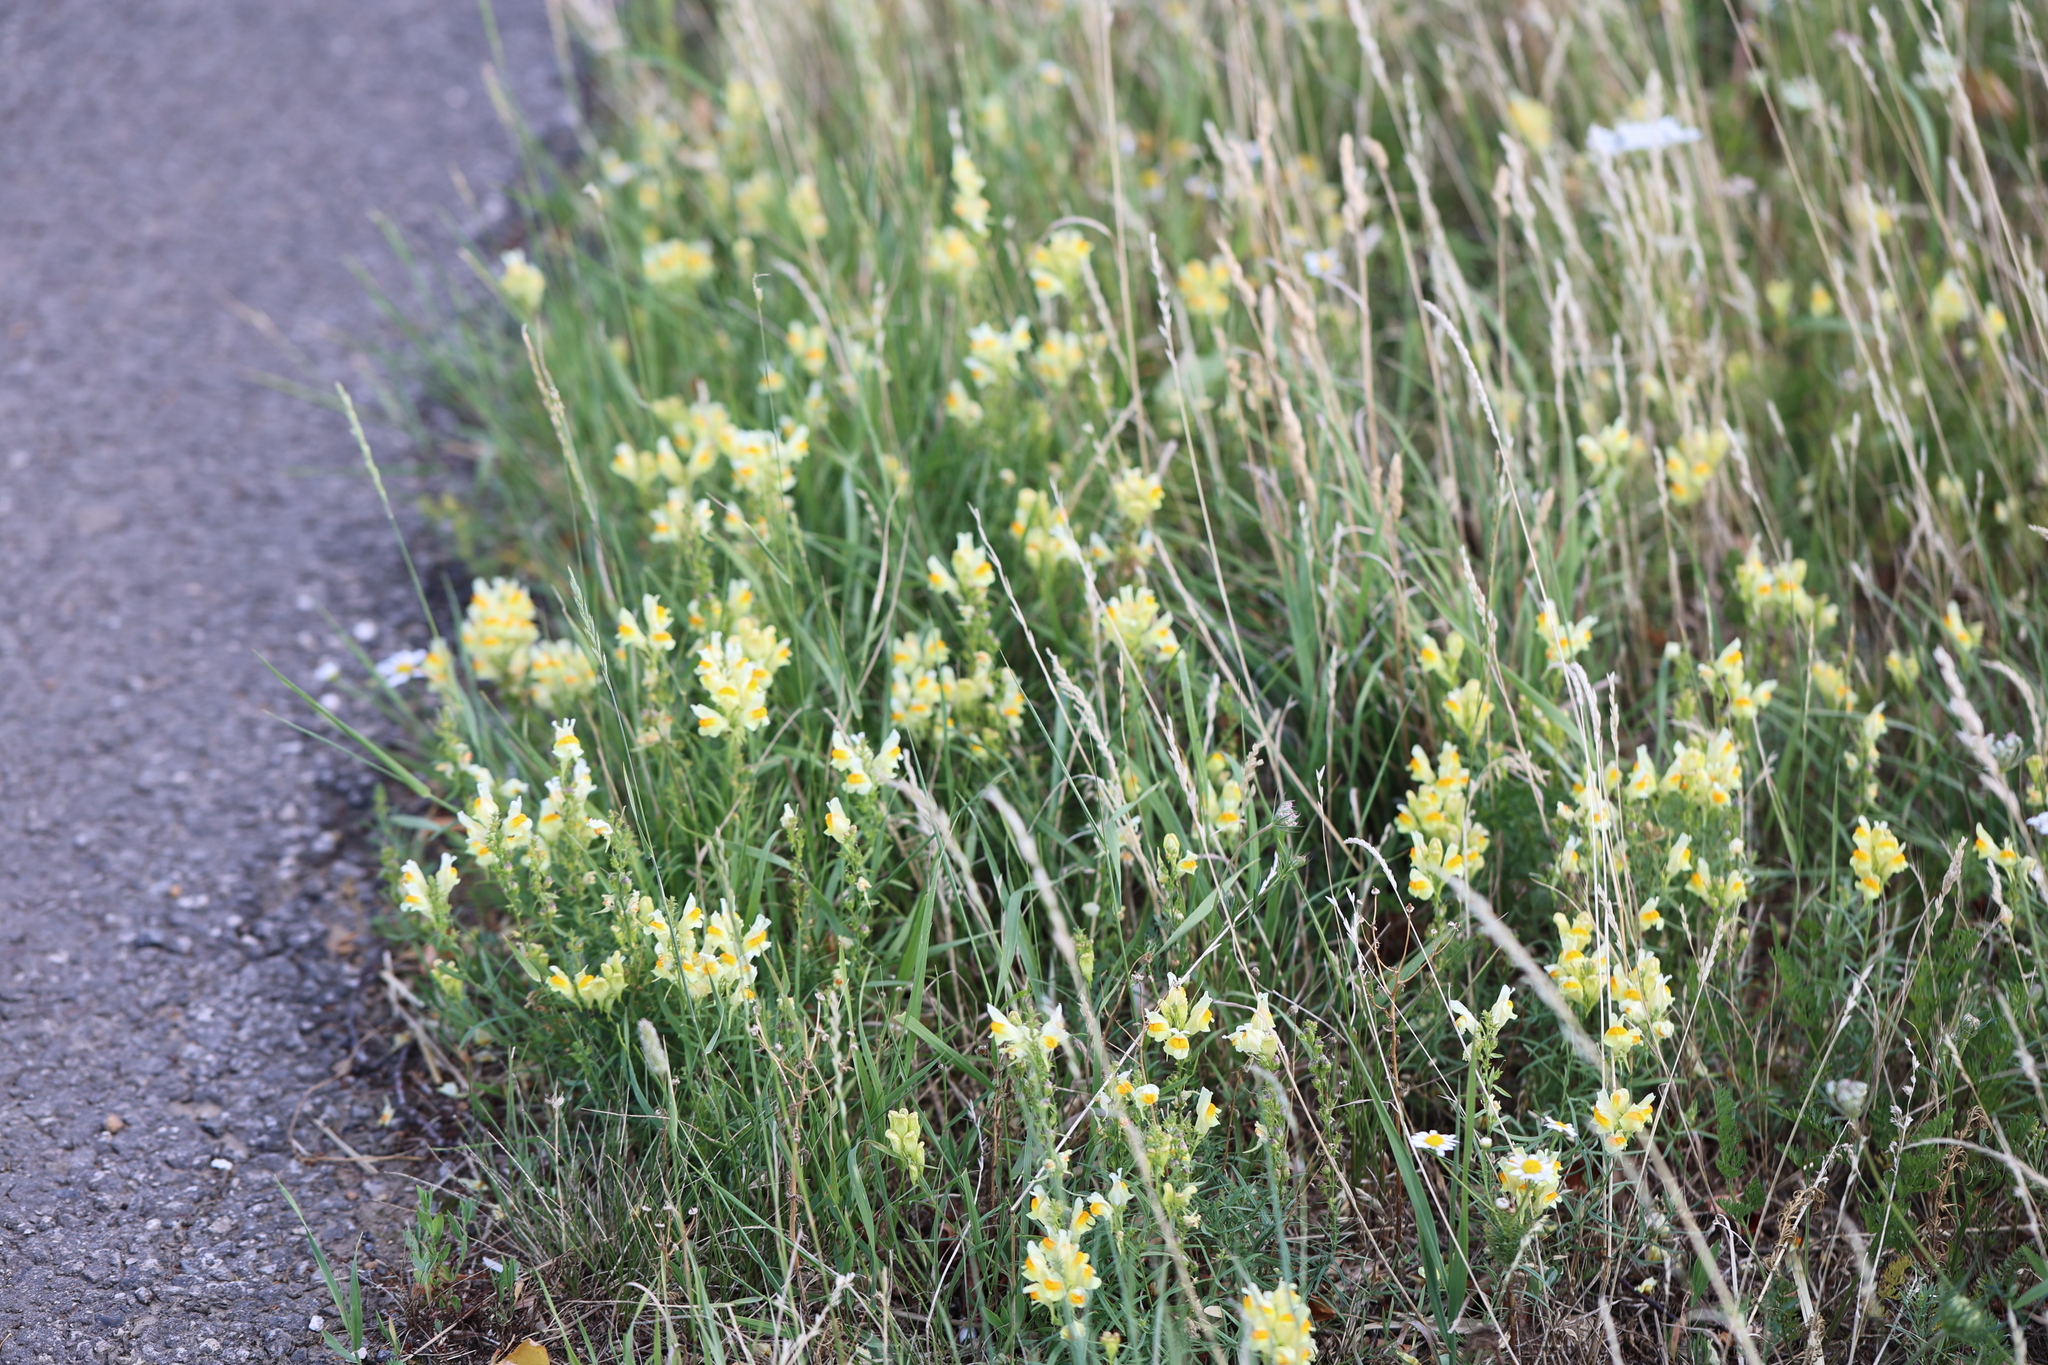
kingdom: Plantae
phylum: Tracheophyta
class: Magnoliopsida
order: Lamiales
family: Plantaginaceae
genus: Linaria
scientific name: Linaria vulgaris
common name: Butter and eggs
